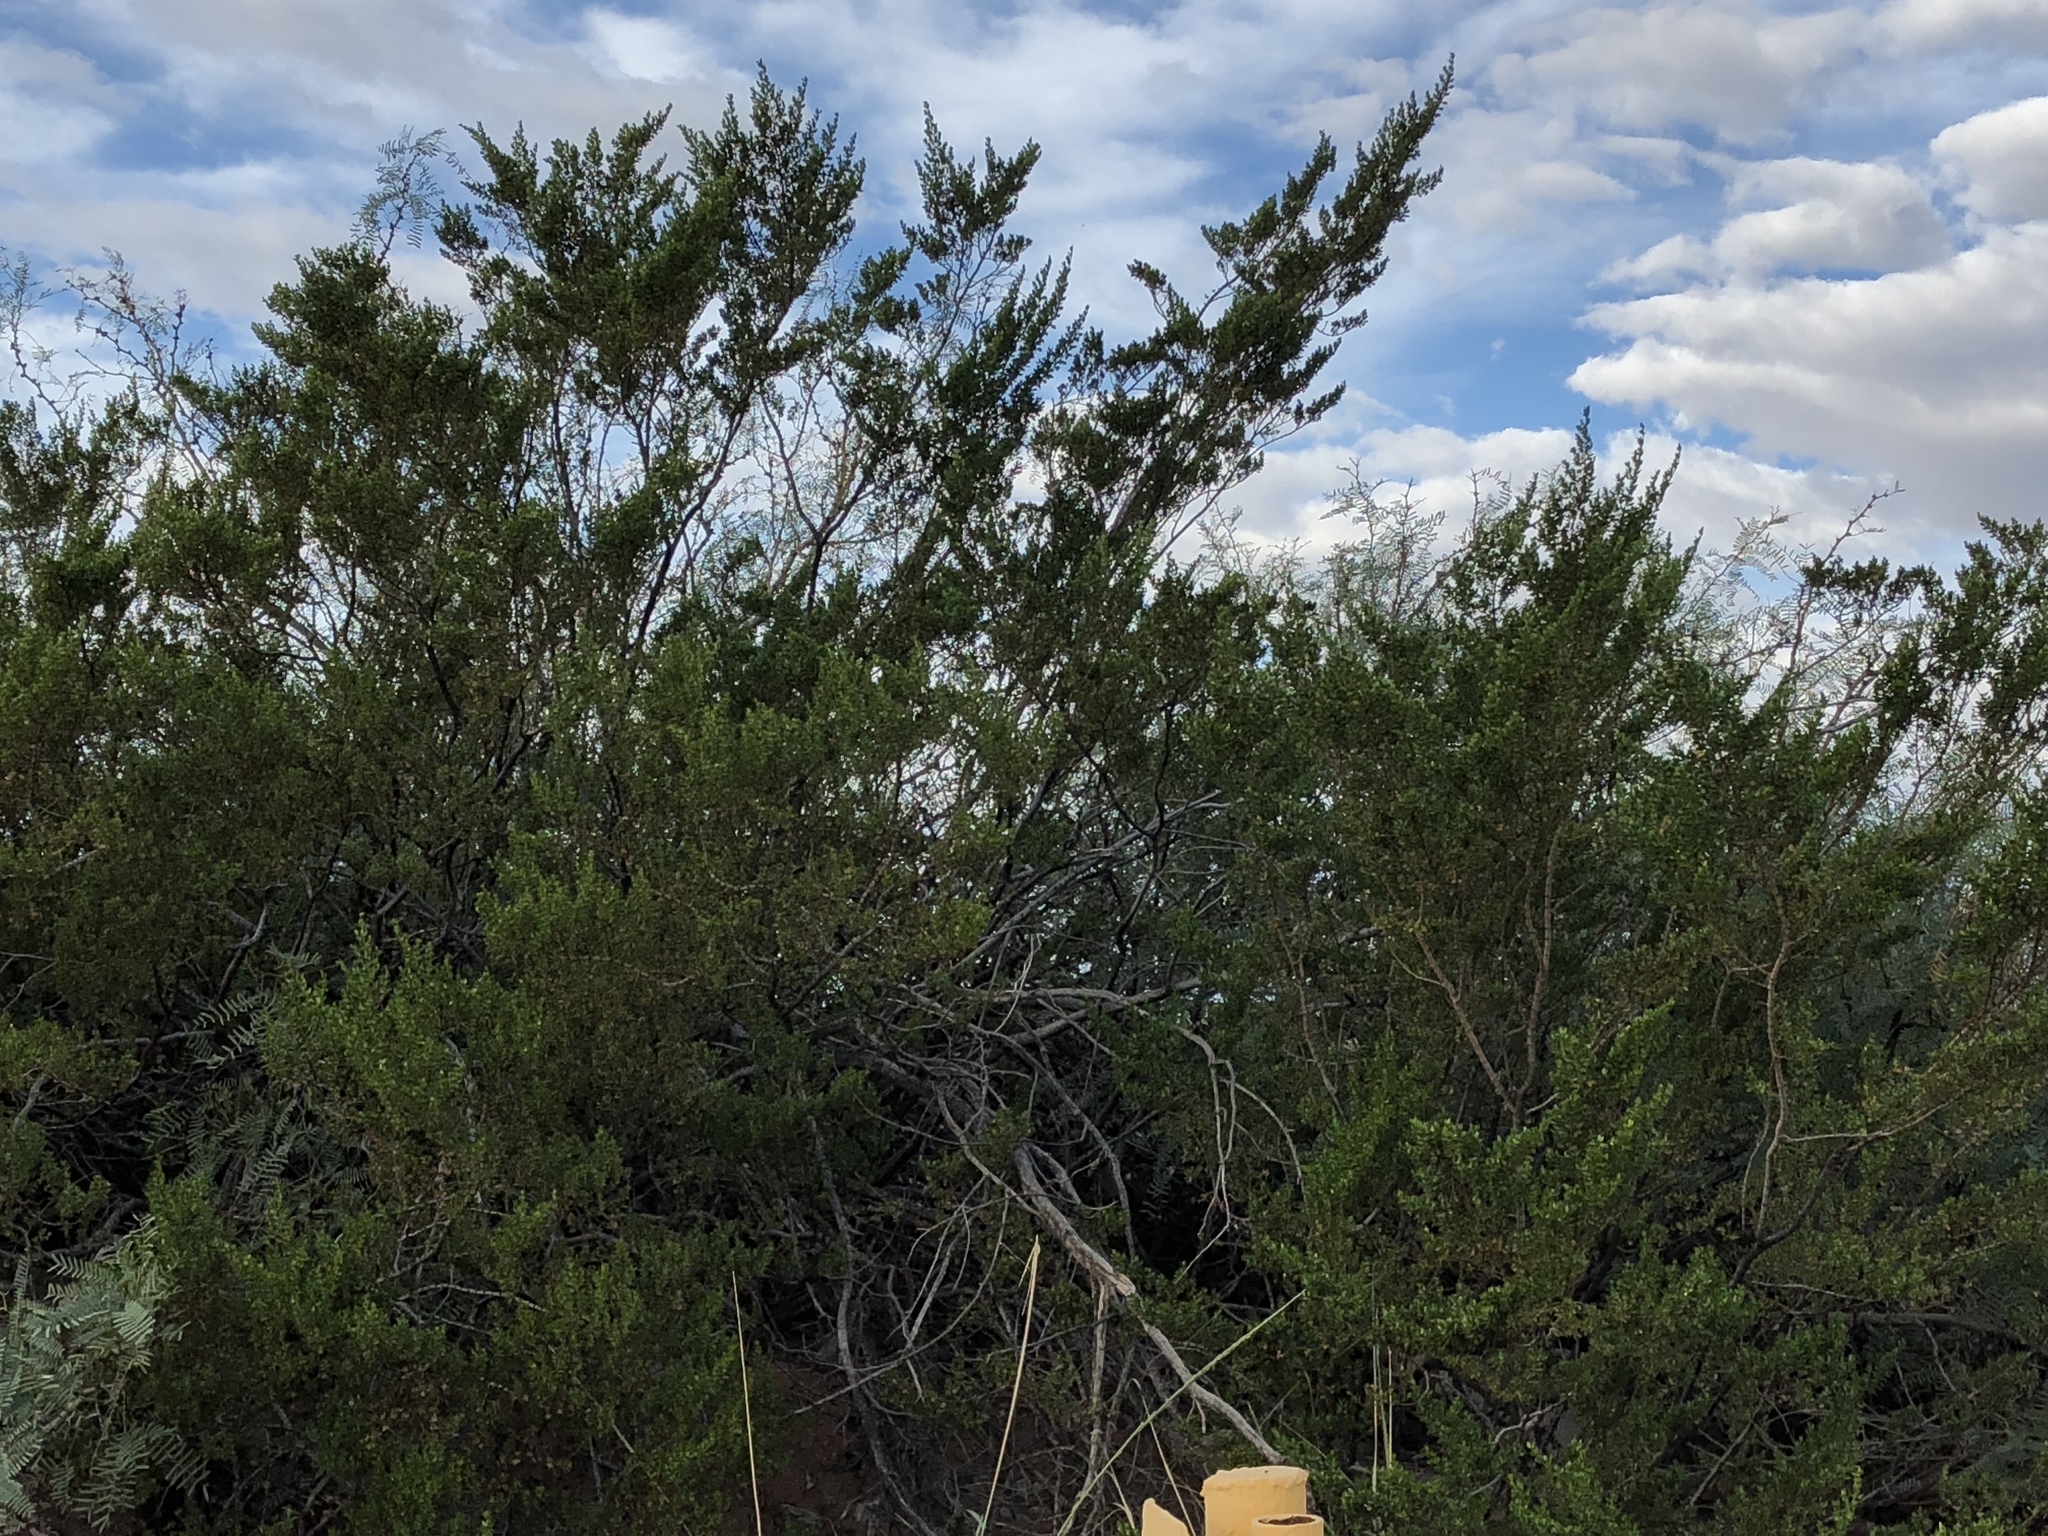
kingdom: Plantae
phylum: Tracheophyta
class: Magnoliopsida
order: Zygophyllales
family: Zygophyllaceae
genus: Larrea
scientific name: Larrea tridentata
